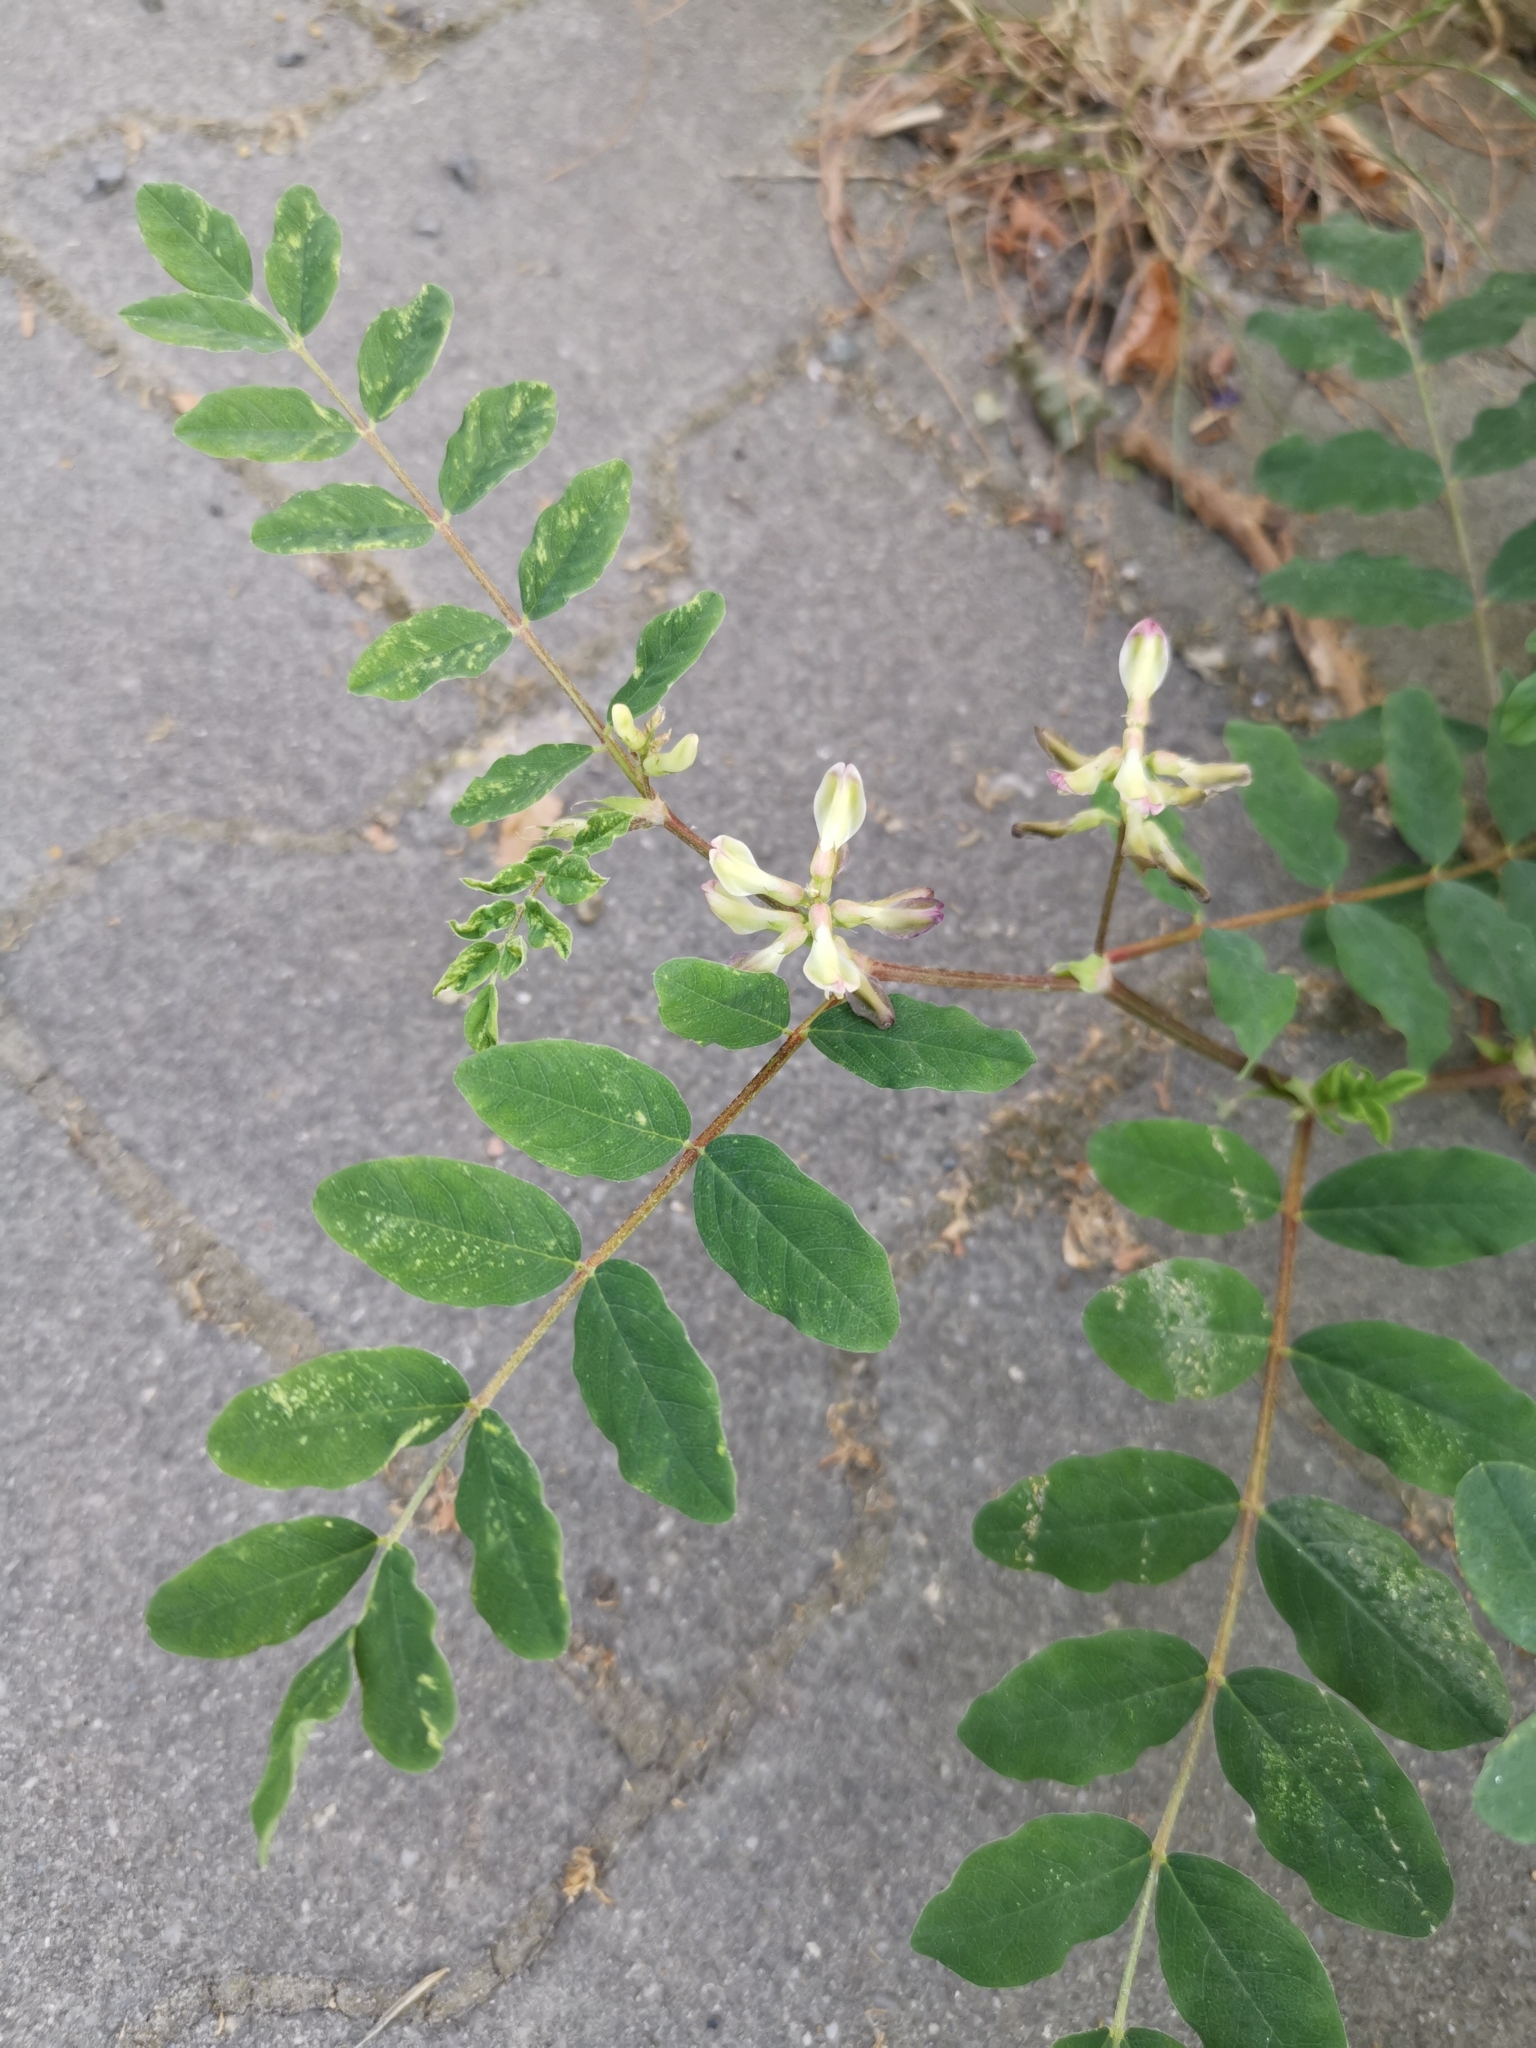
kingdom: Plantae
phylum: Tracheophyta
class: Magnoliopsida
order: Fabales
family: Fabaceae
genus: Astragalus
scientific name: Astragalus glycyphyllos
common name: Wild liquorice
